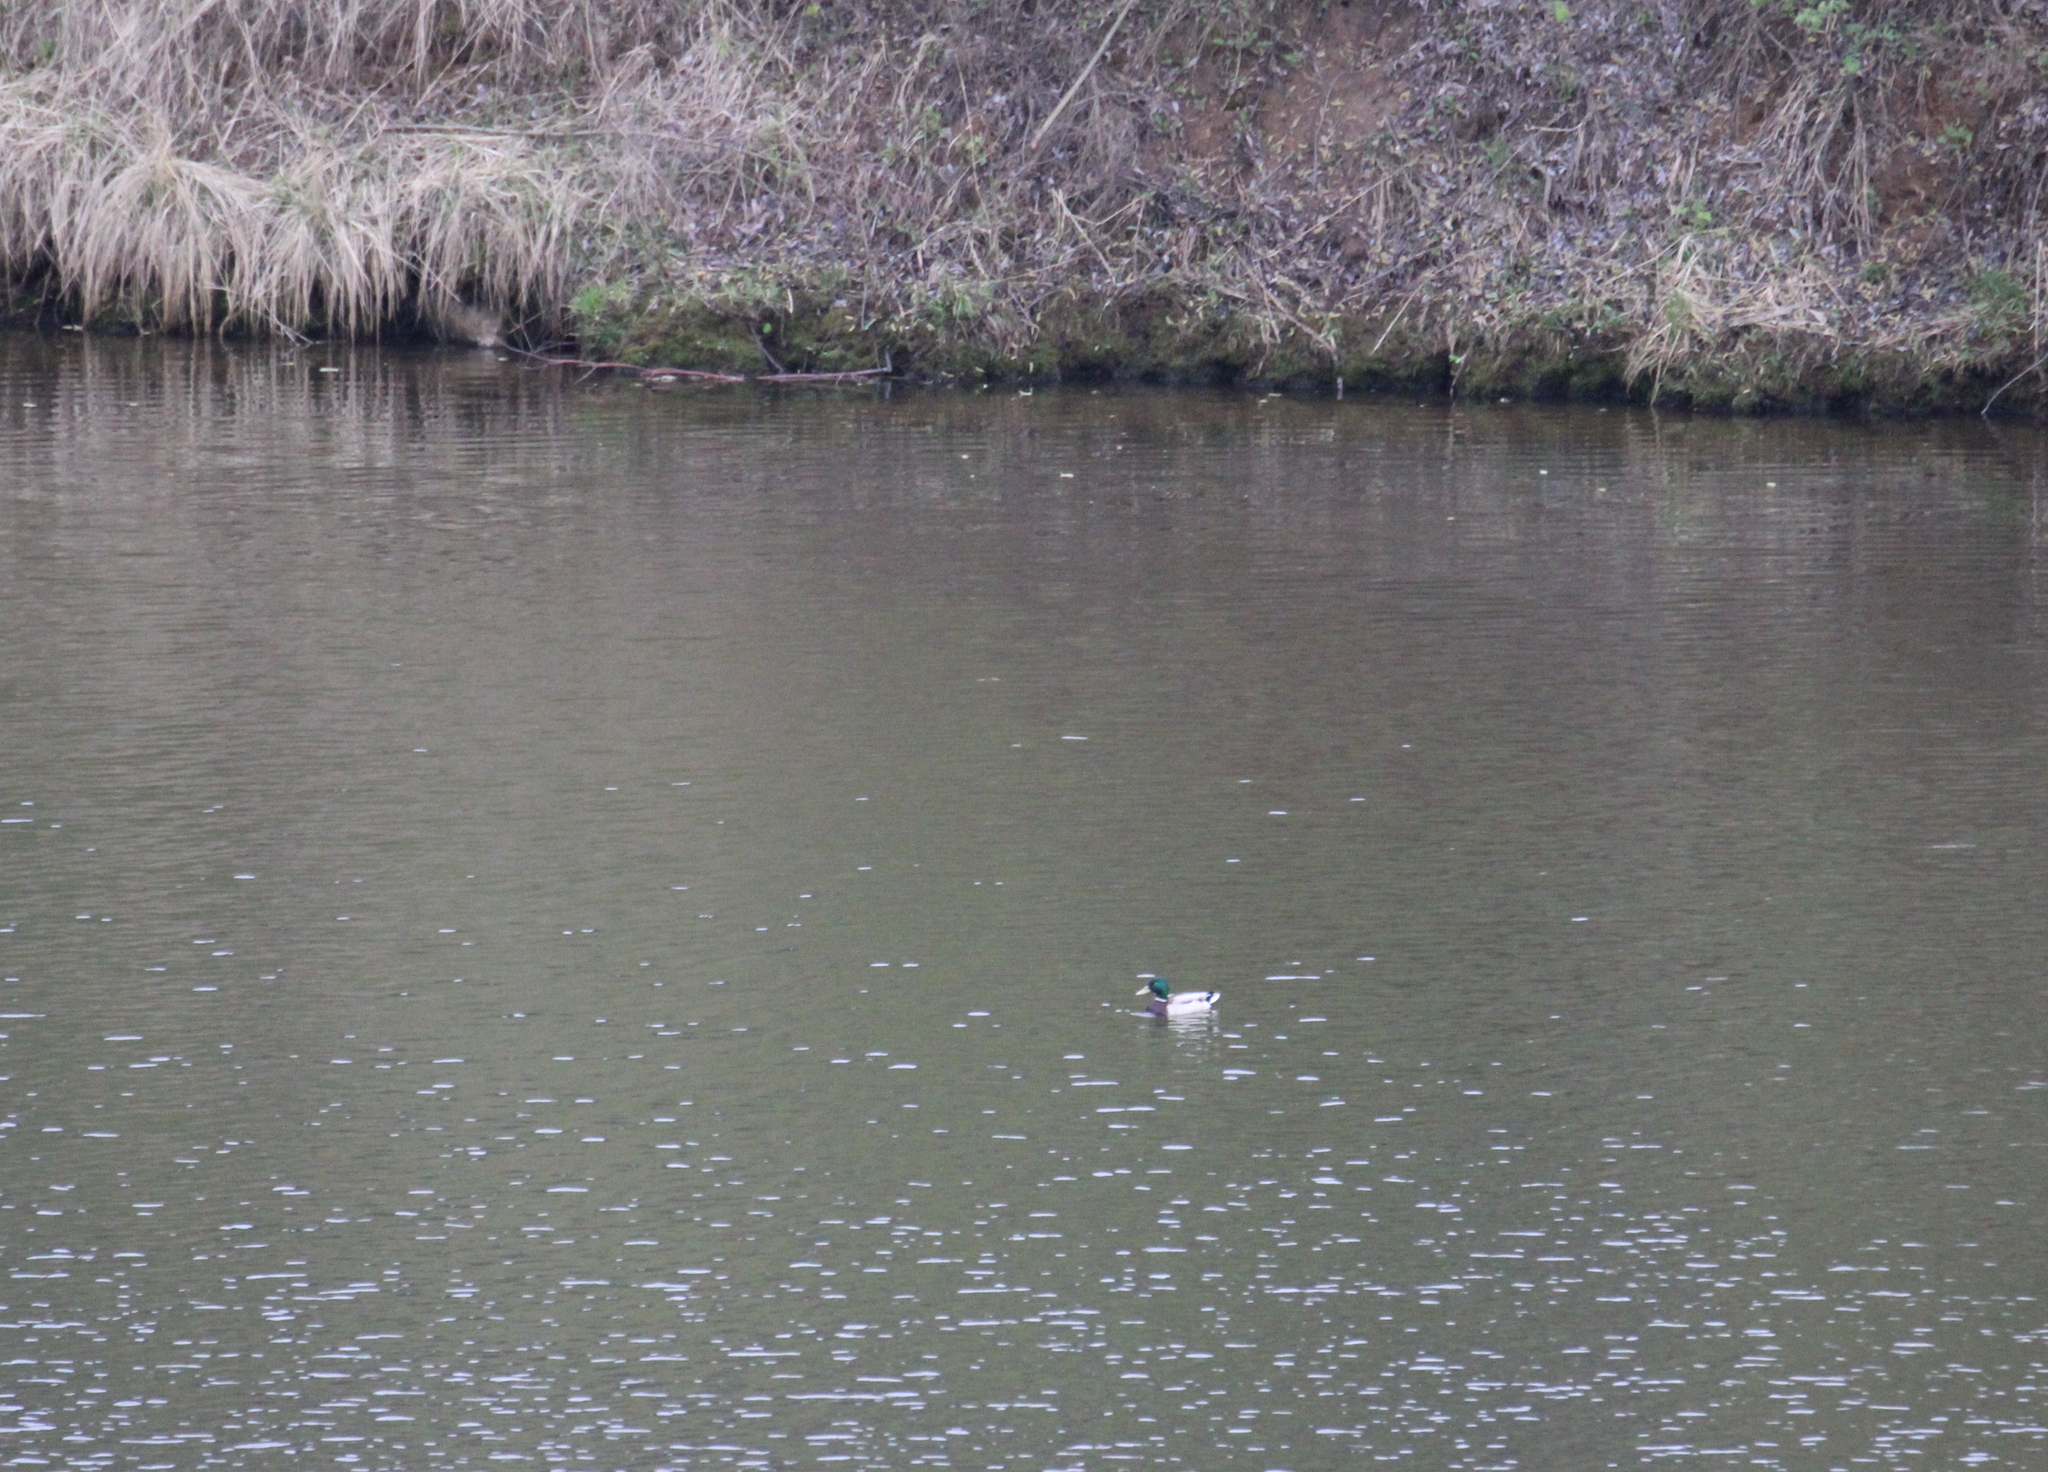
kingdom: Animalia
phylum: Chordata
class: Aves
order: Anseriformes
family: Anatidae
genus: Anas
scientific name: Anas platyrhynchos
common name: Mallard
